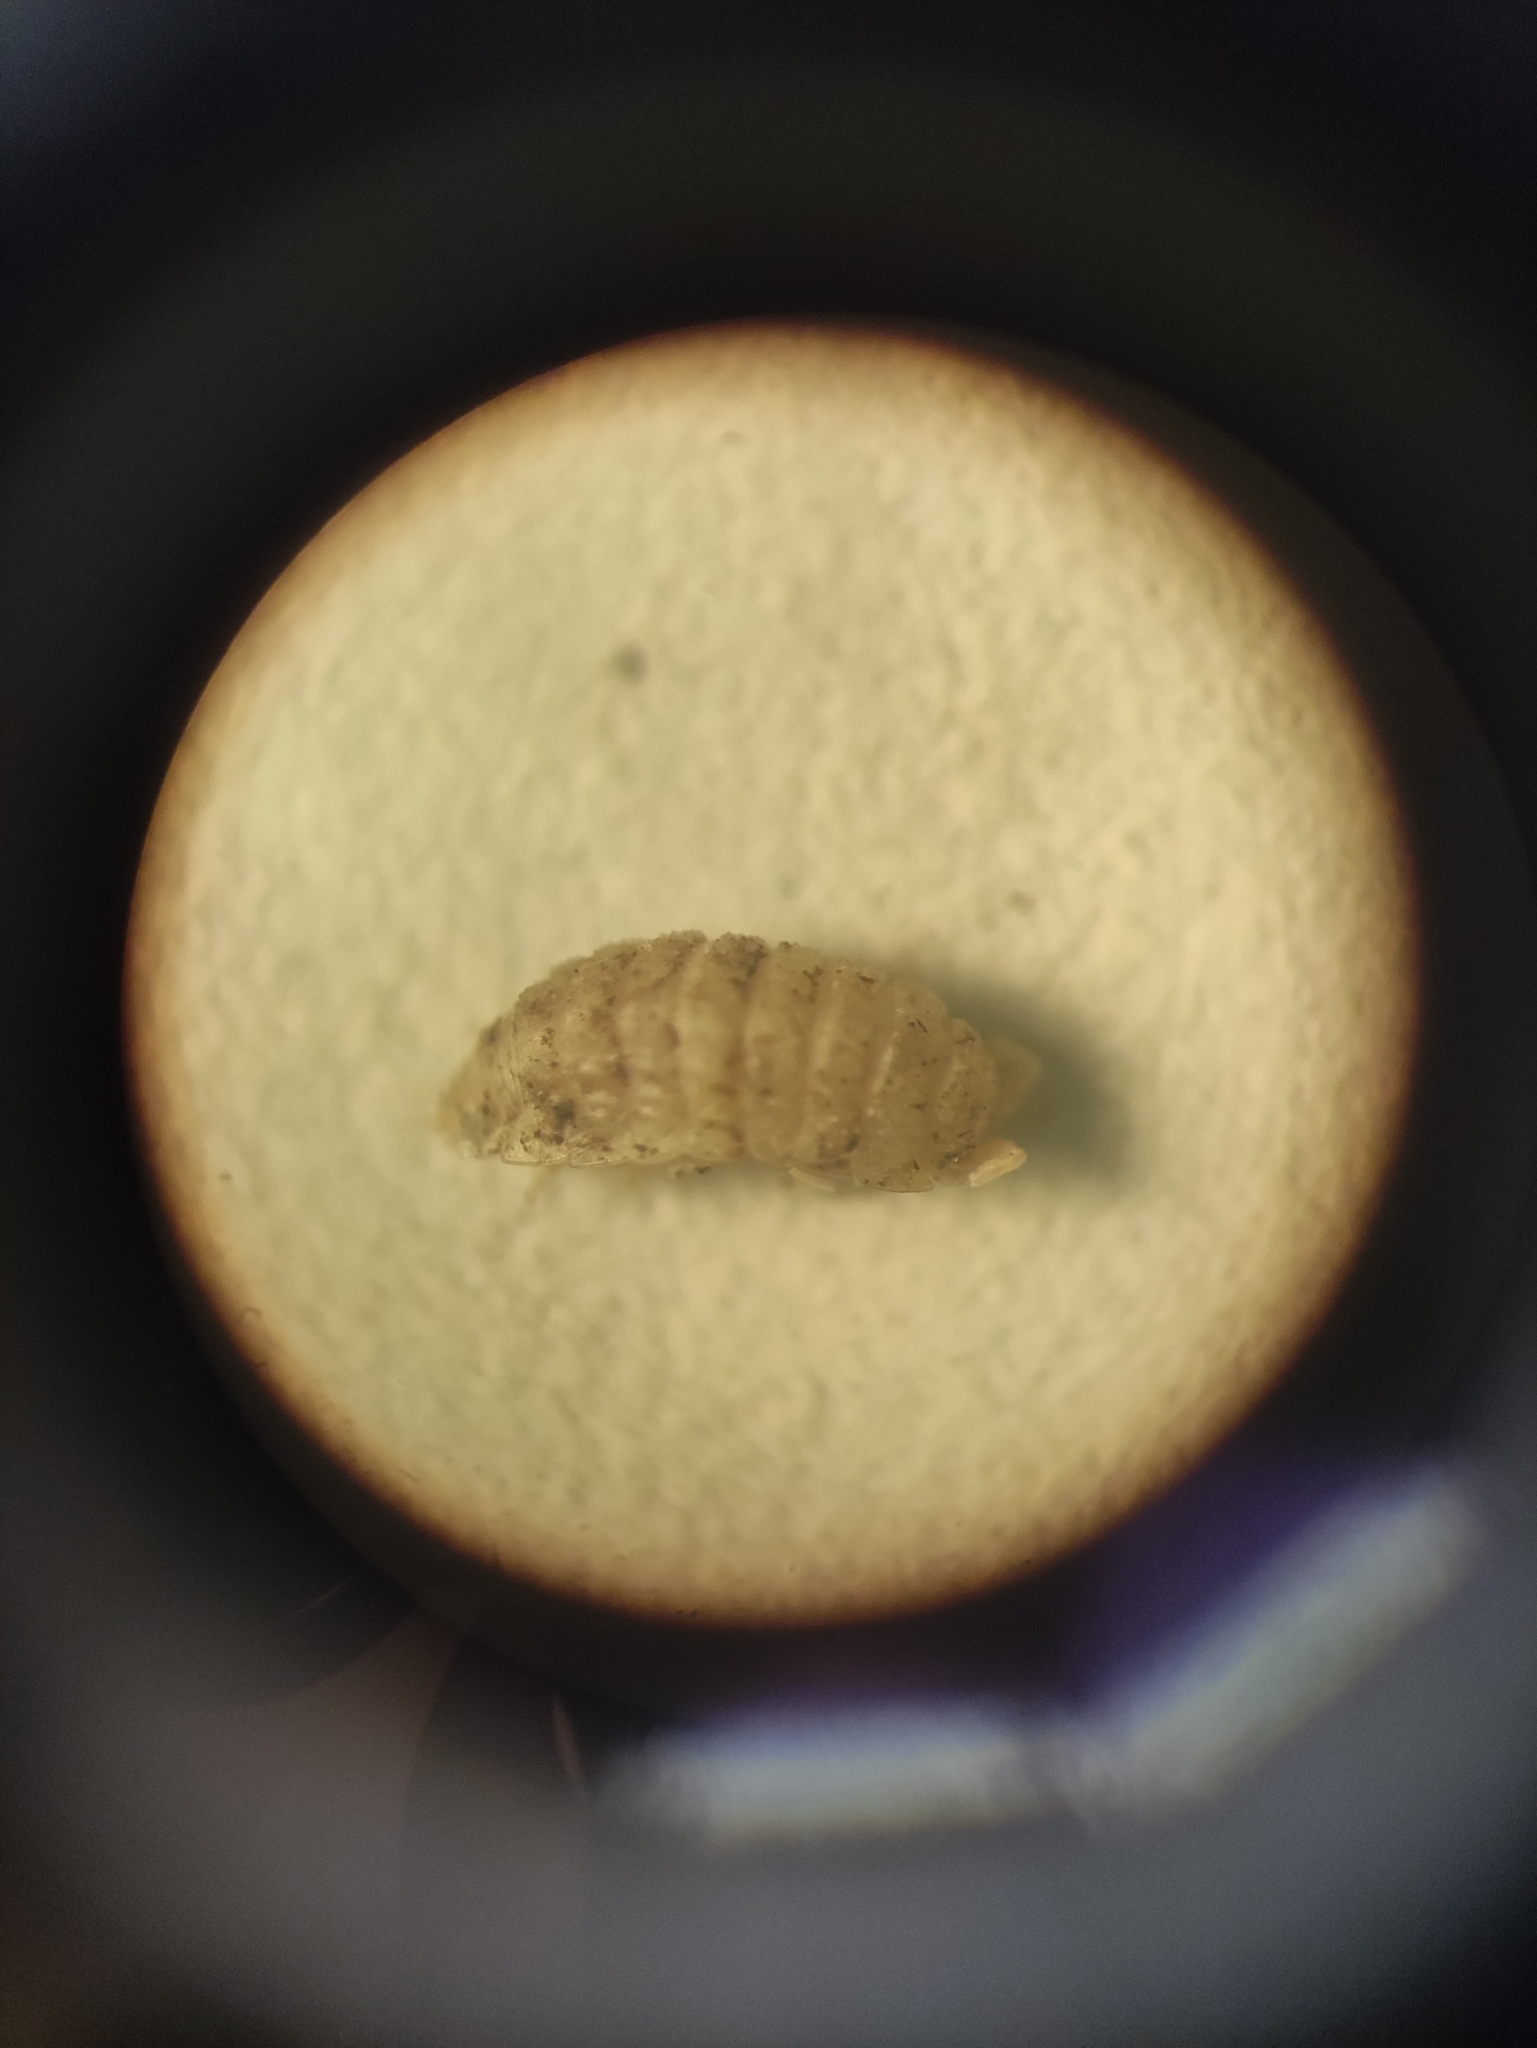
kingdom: Animalia
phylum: Arthropoda
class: Malacostraca
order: Isopoda
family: Trichoniscidae
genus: Haplophthalmus
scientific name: Haplophthalmus danicus
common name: Pillbug
